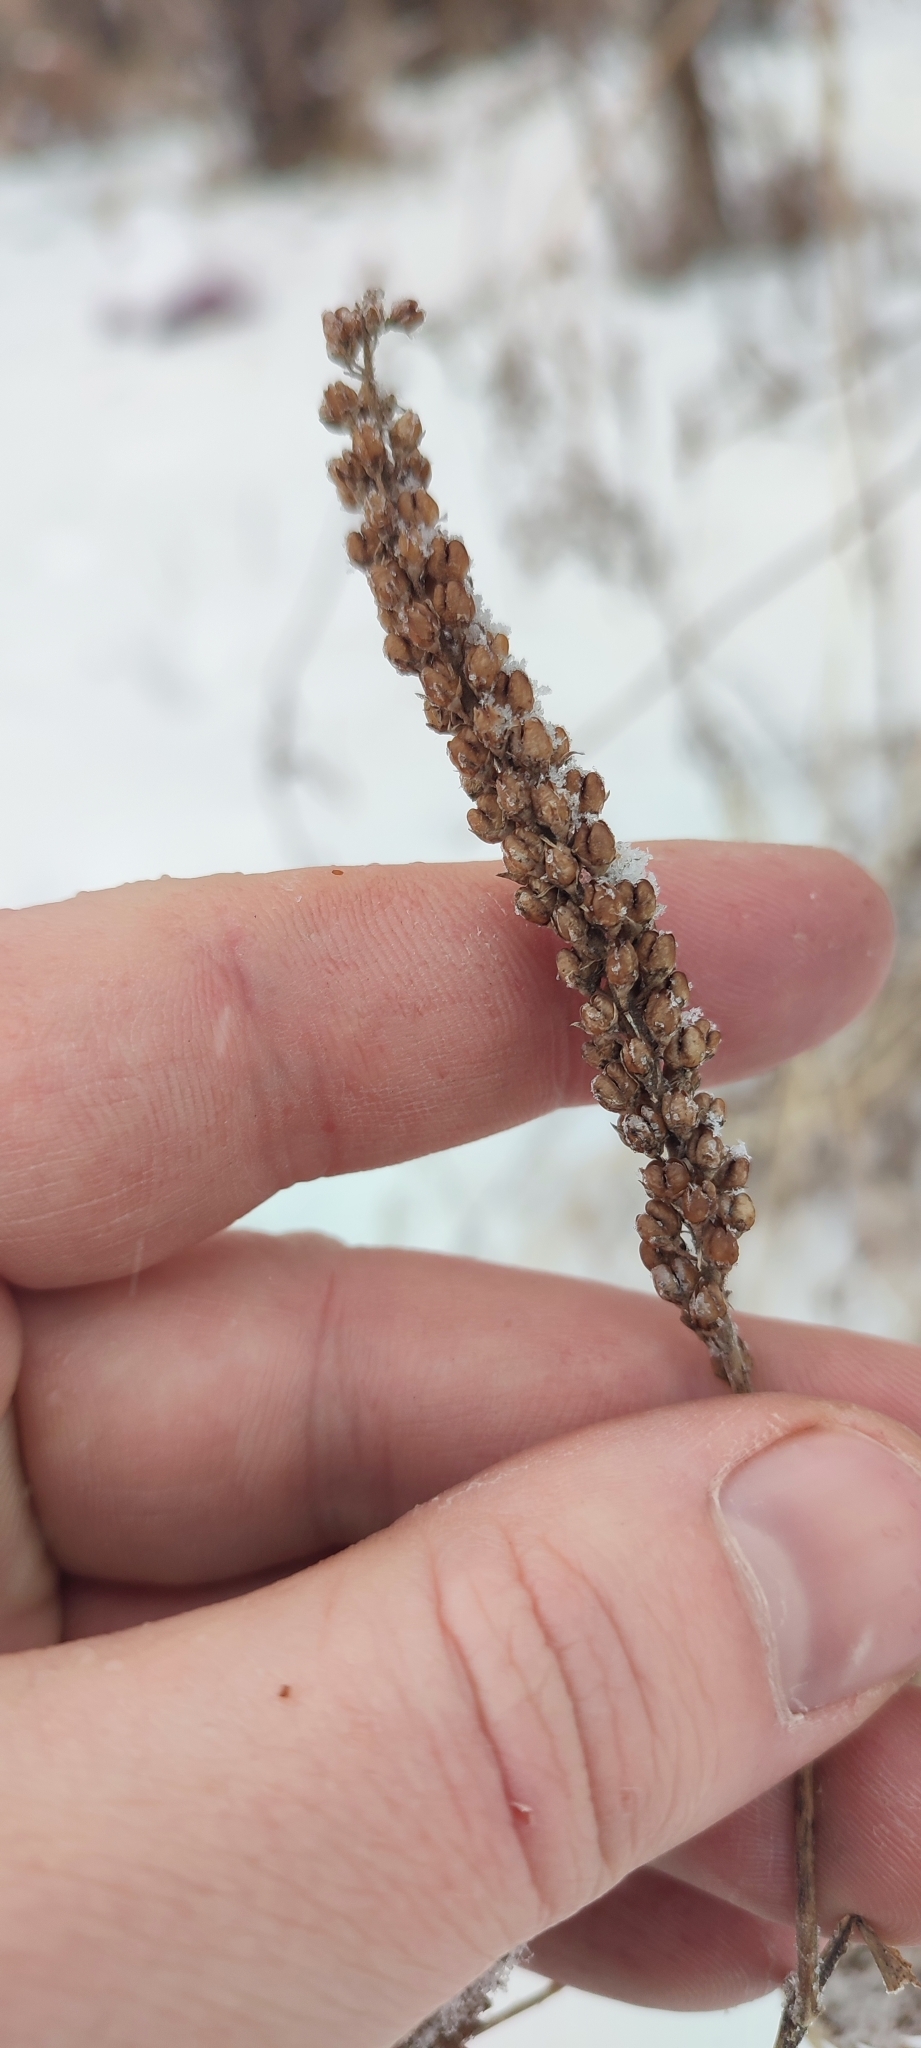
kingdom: Plantae
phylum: Tracheophyta
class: Magnoliopsida
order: Lamiales
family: Plantaginaceae
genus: Veronica
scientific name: Veronica longifolia
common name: Garden speedwell
